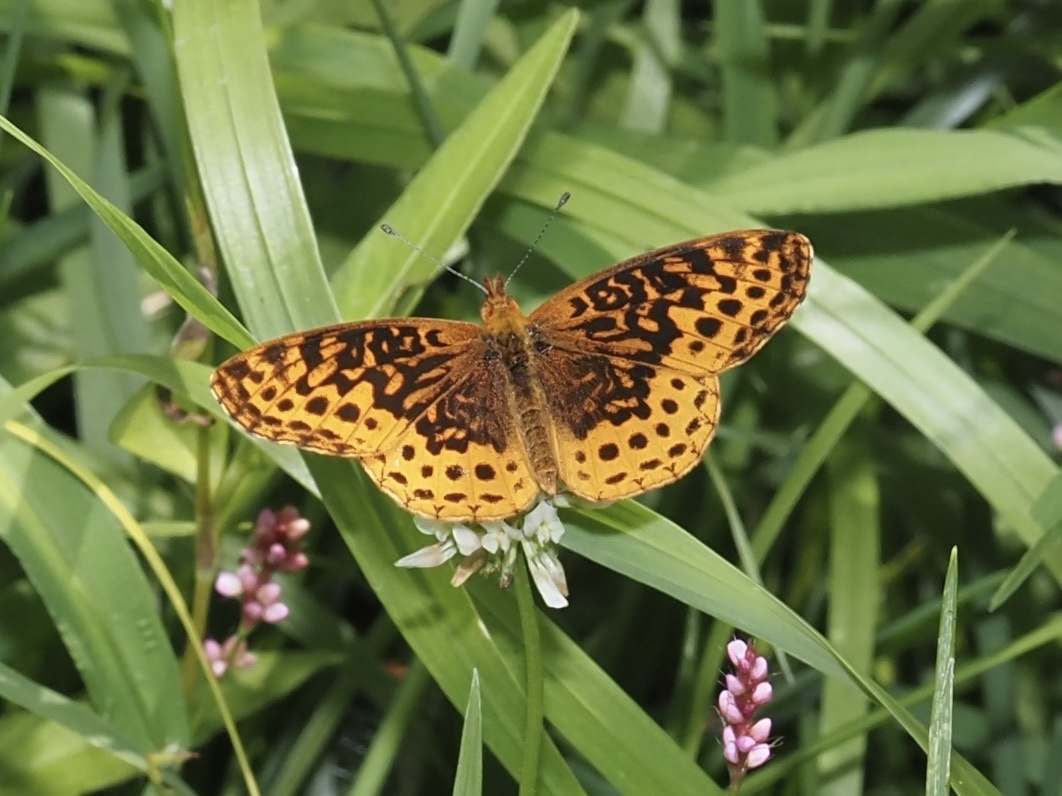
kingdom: Animalia
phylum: Arthropoda
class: Insecta
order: Lepidoptera
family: Nymphalidae
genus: Clossiana
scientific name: Clossiana toddi
